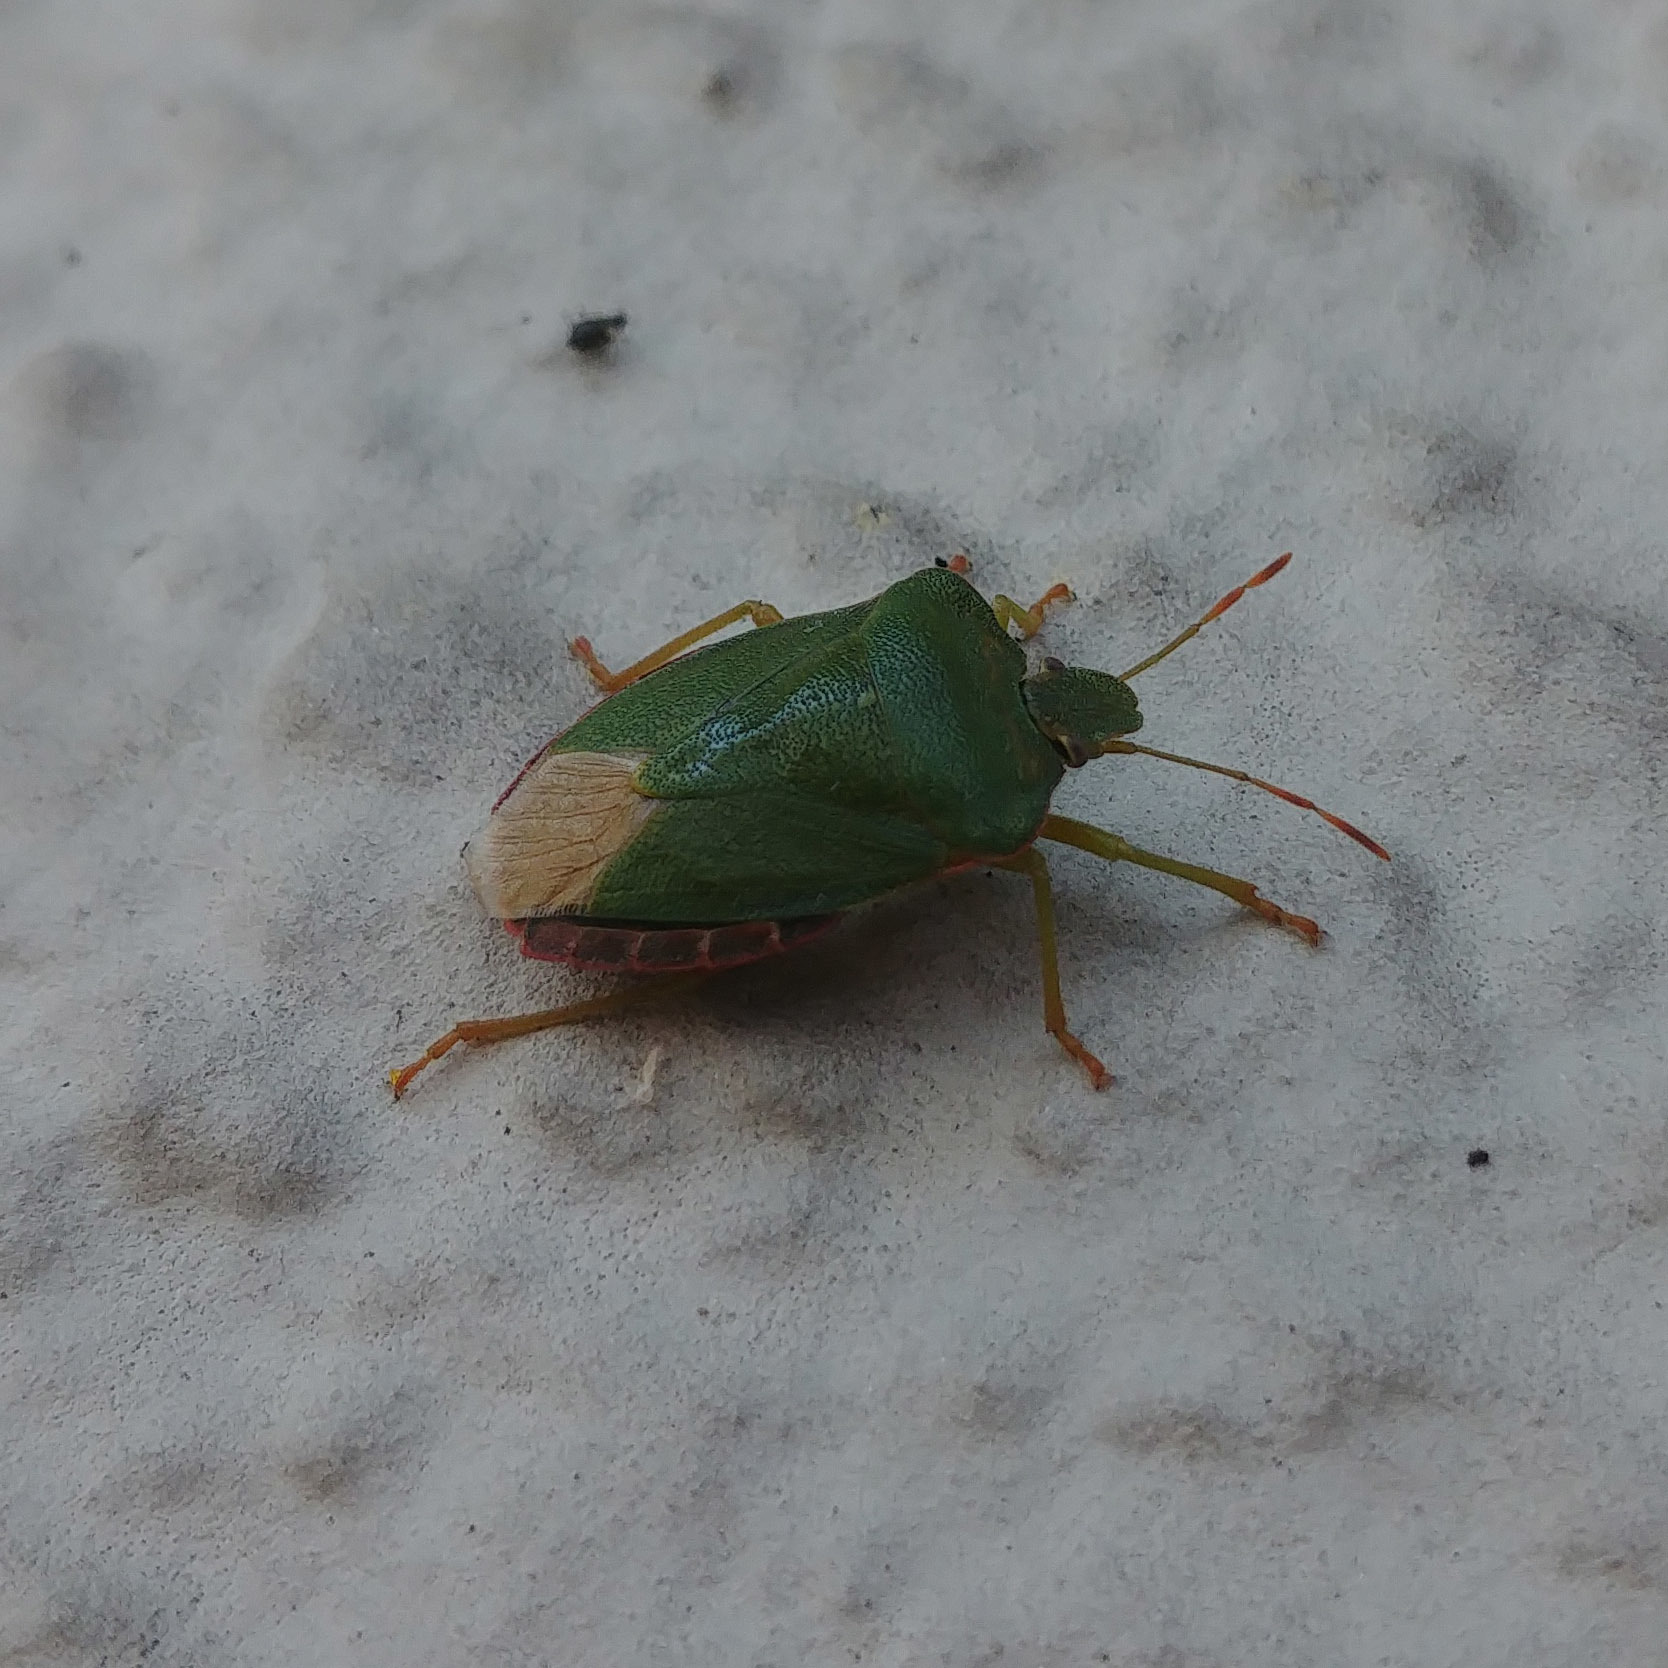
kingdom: Animalia
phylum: Arthropoda
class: Insecta
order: Hemiptera
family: Pentatomidae
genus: Palomena
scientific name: Palomena prasina
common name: Green shieldbug
